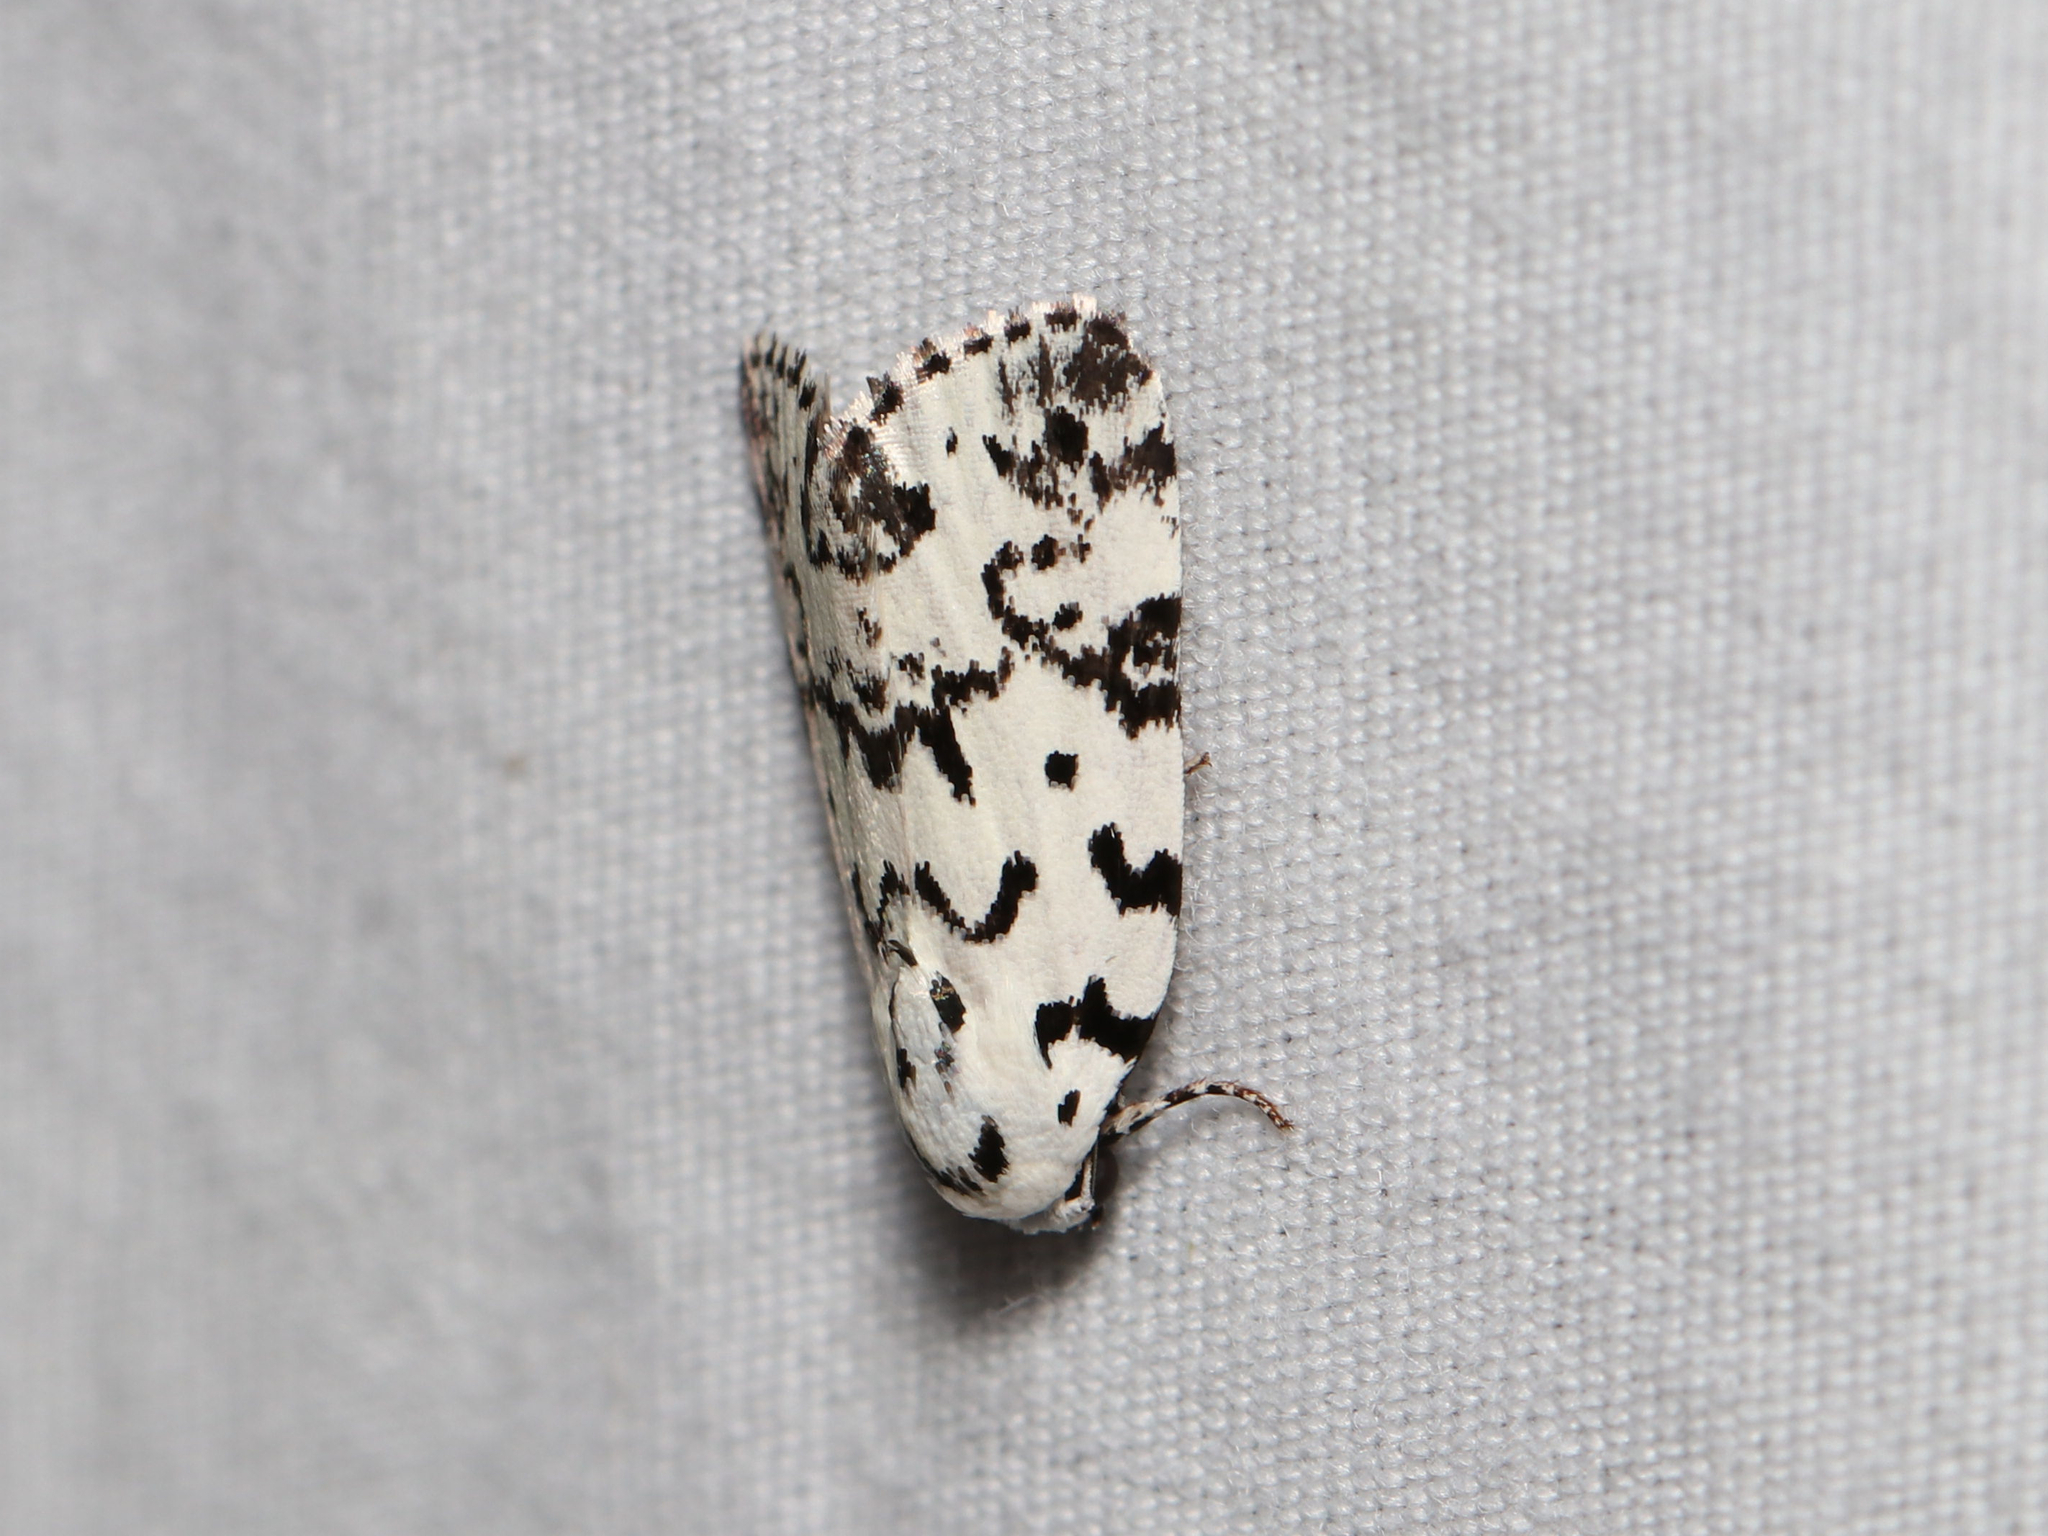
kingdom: Animalia
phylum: Arthropoda
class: Insecta
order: Lepidoptera
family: Noctuidae
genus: Polygrammate
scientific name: Polygrammate hebraeicum
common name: Hebrew moth
